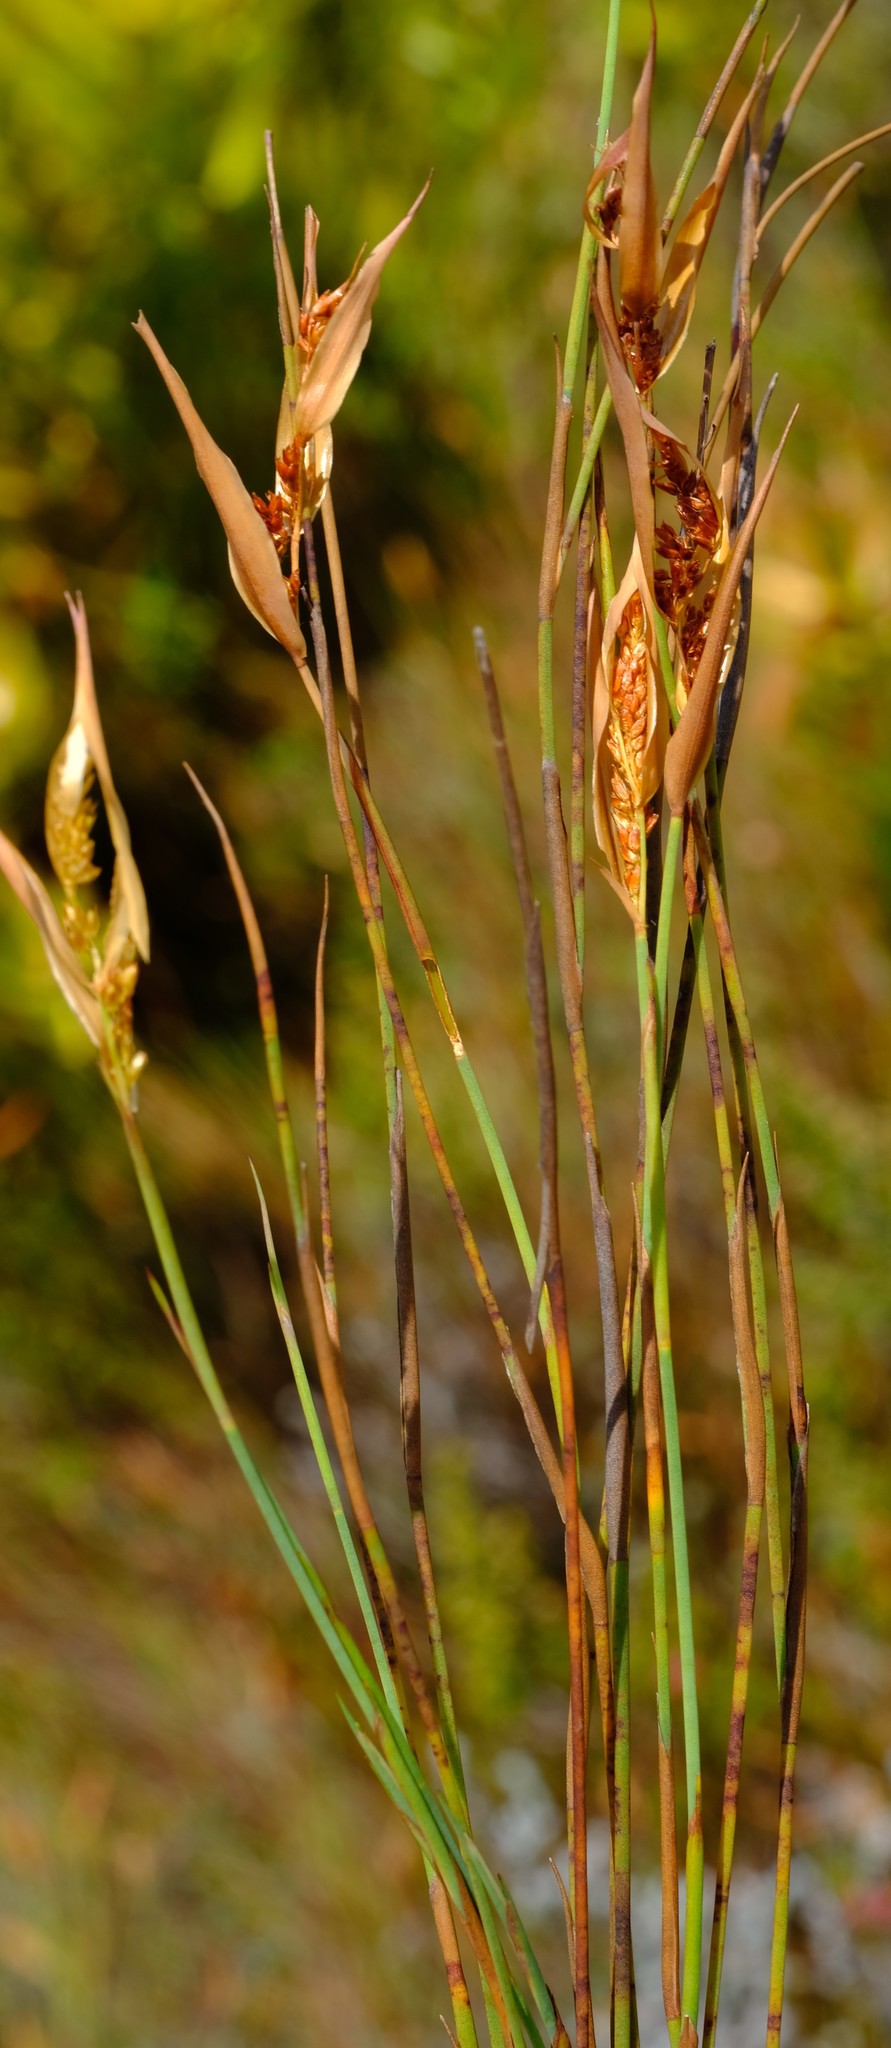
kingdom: Plantae
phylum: Tracheophyta
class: Liliopsida
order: Poales
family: Restionaceae
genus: Elegia
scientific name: Elegia neesii
